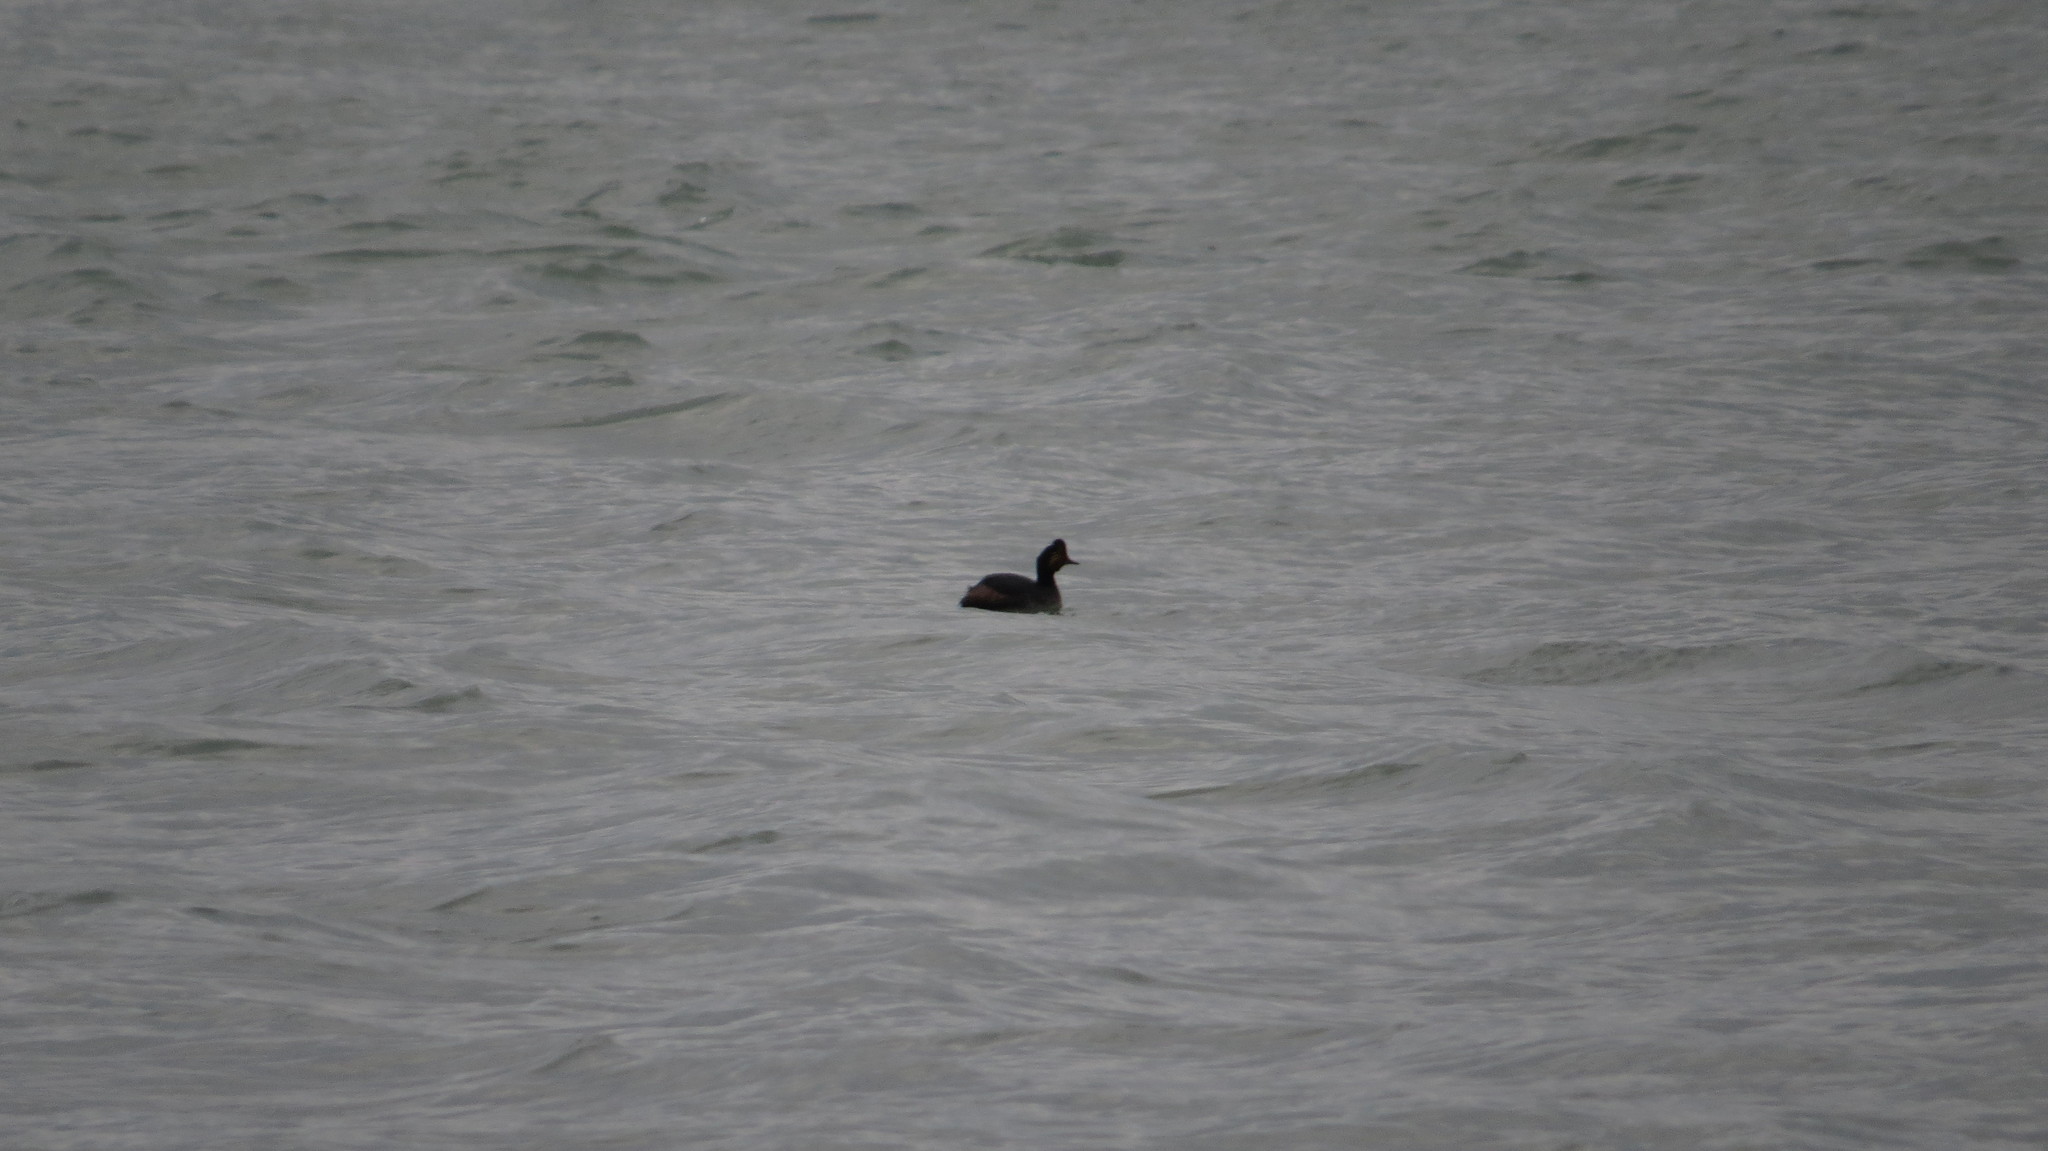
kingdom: Animalia
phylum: Chordata
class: Aves
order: Podicipediformes
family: Podicipedidae
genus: Podiceps
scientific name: Podiceps nigricollis
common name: Black-necked grebe
